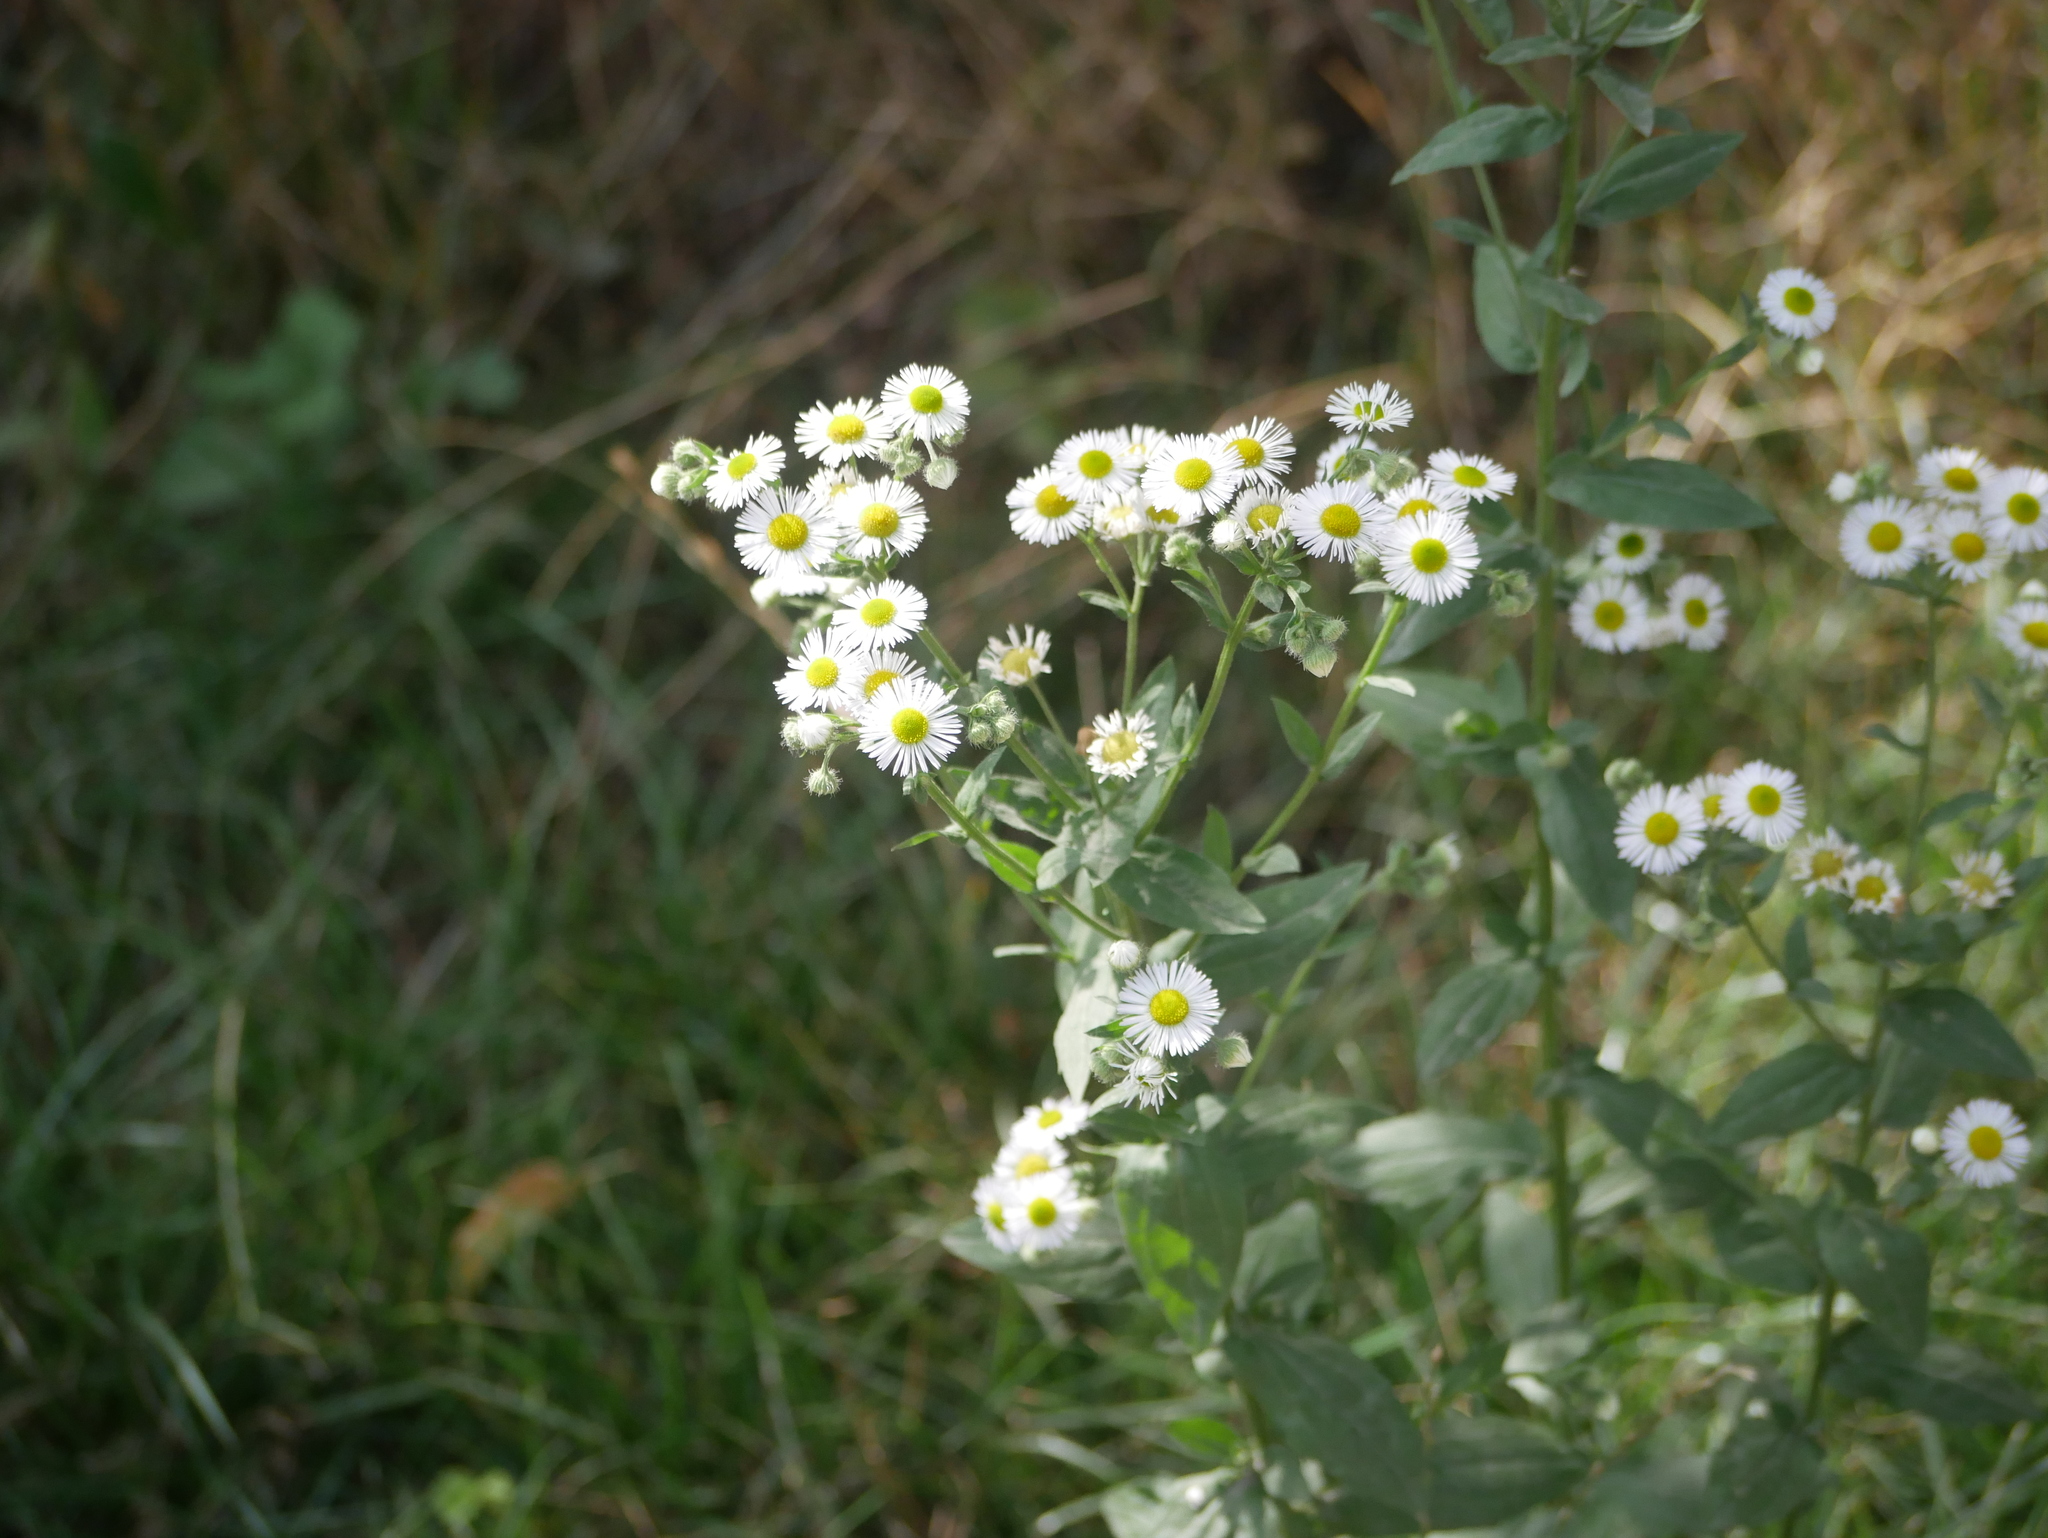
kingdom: Plantae
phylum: Tracheophyta
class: Magnoliopsida
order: Asterales
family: Asteraceae
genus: Erigeron
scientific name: Erigeron annuus
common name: Tall fleabane
